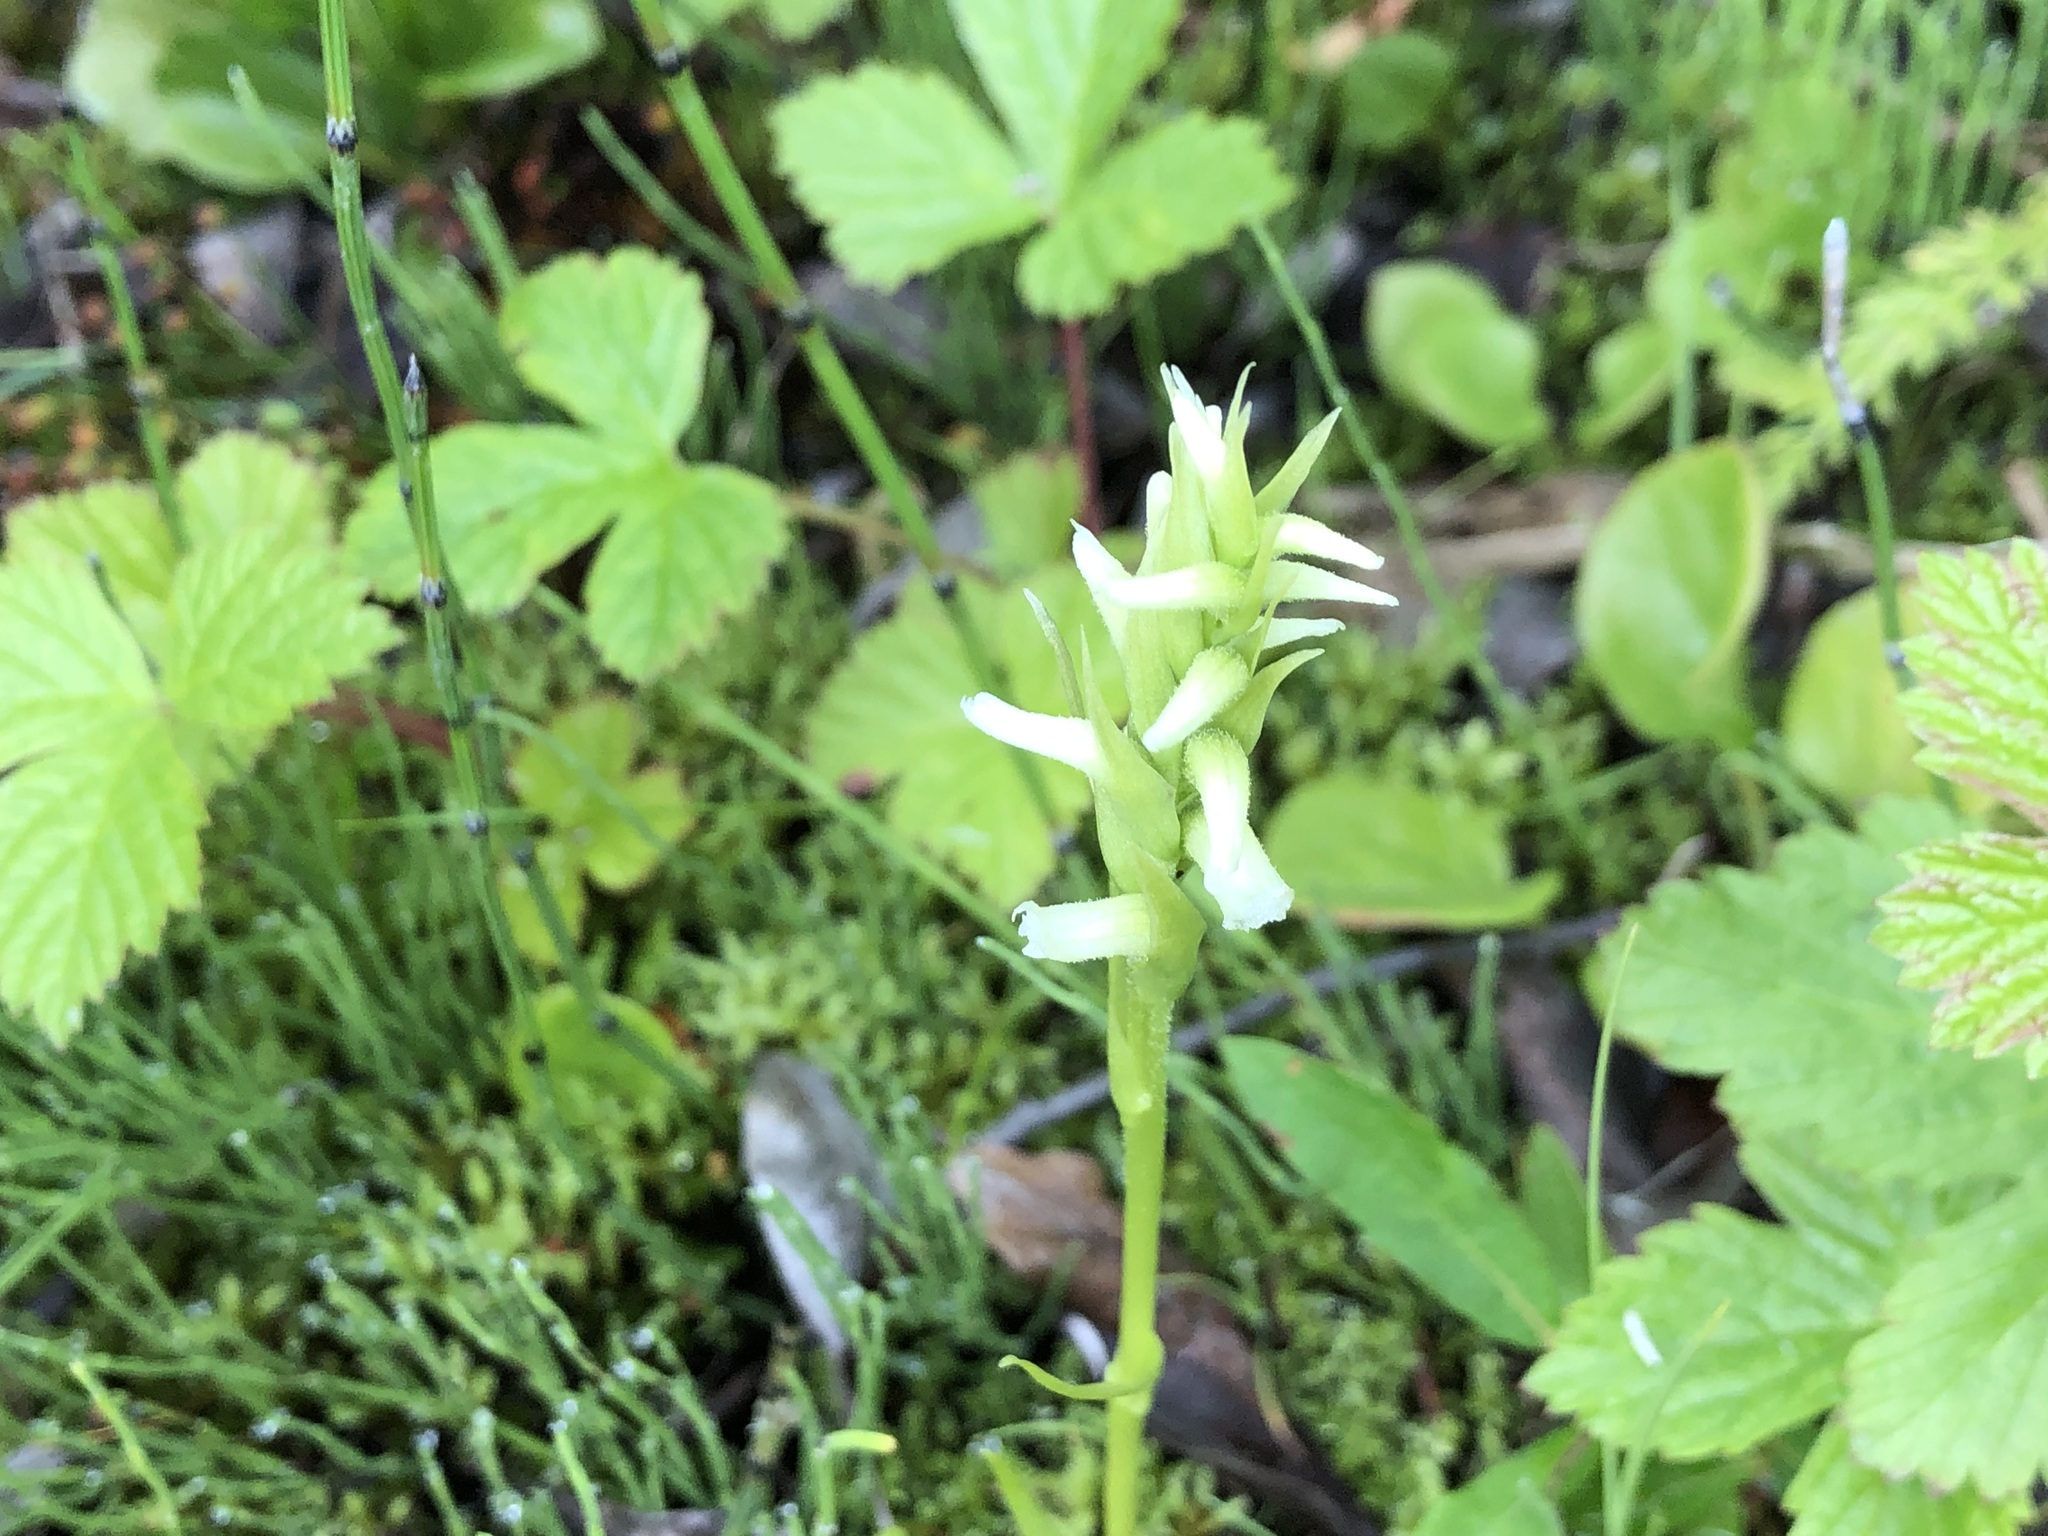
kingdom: Plantae
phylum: Tracheophyta
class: Liliopsida
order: Asparagales
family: Orchidaceae
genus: Spiranthes
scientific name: Spiranthes romanzoffiana
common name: Irish lady's-tresses
